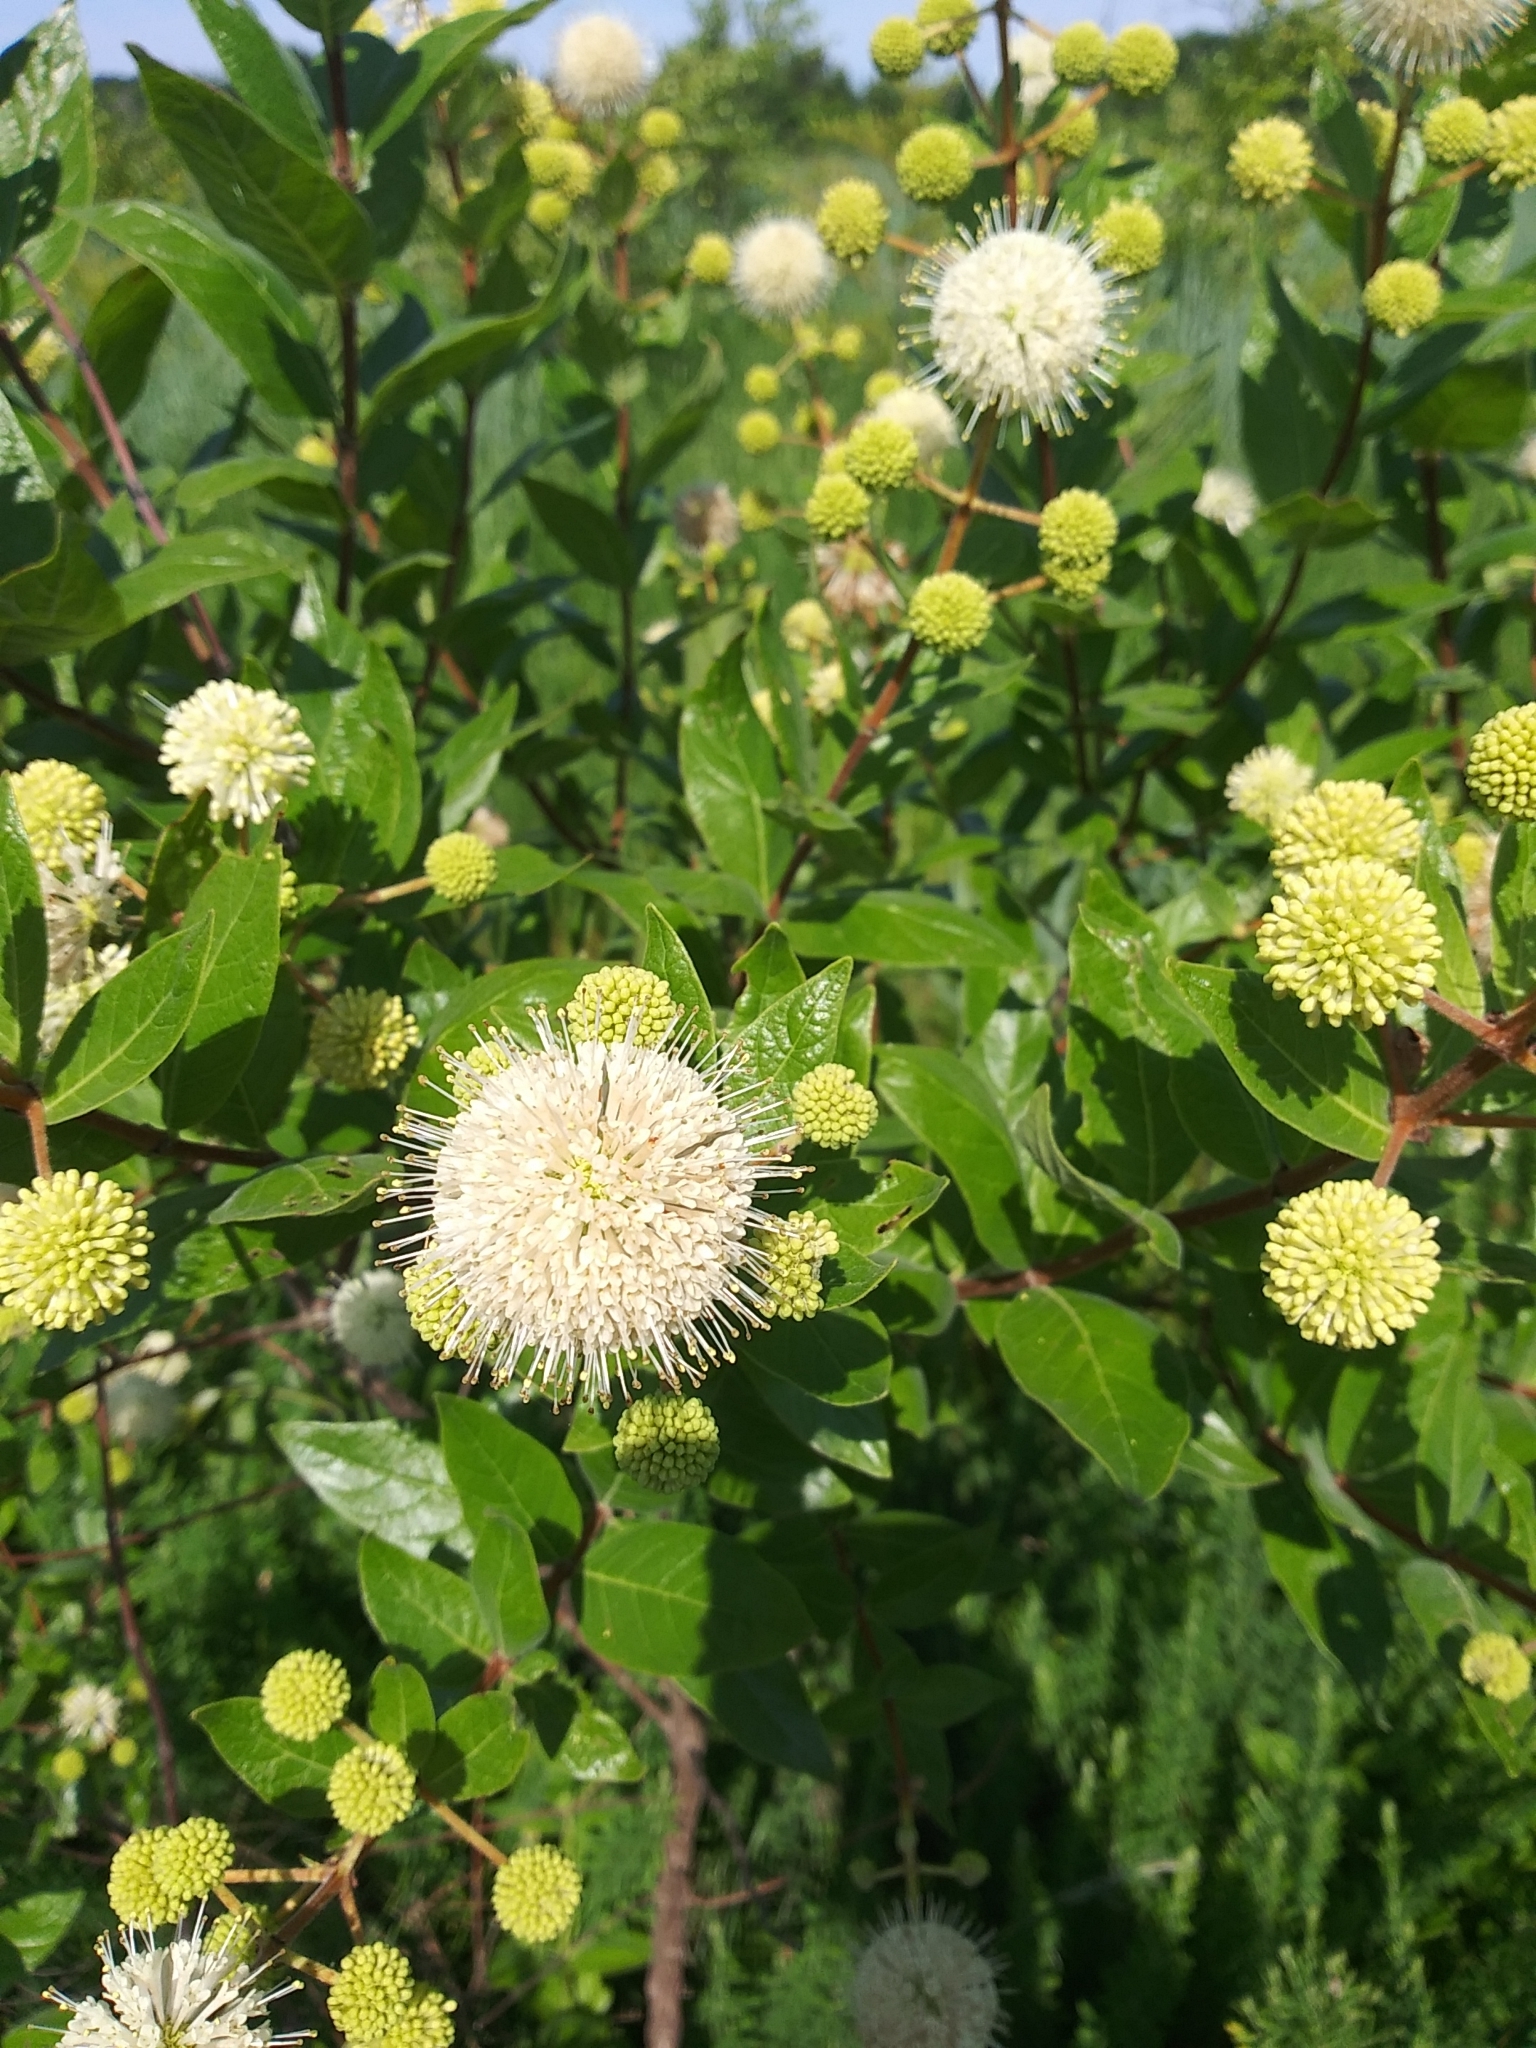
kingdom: Plantae
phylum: Tracheophyta
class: Magnoliopsida
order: Gentianales
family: Rubiaceae
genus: Cephalanthus
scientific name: Cephalanthus occidentalis
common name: Button-willow
